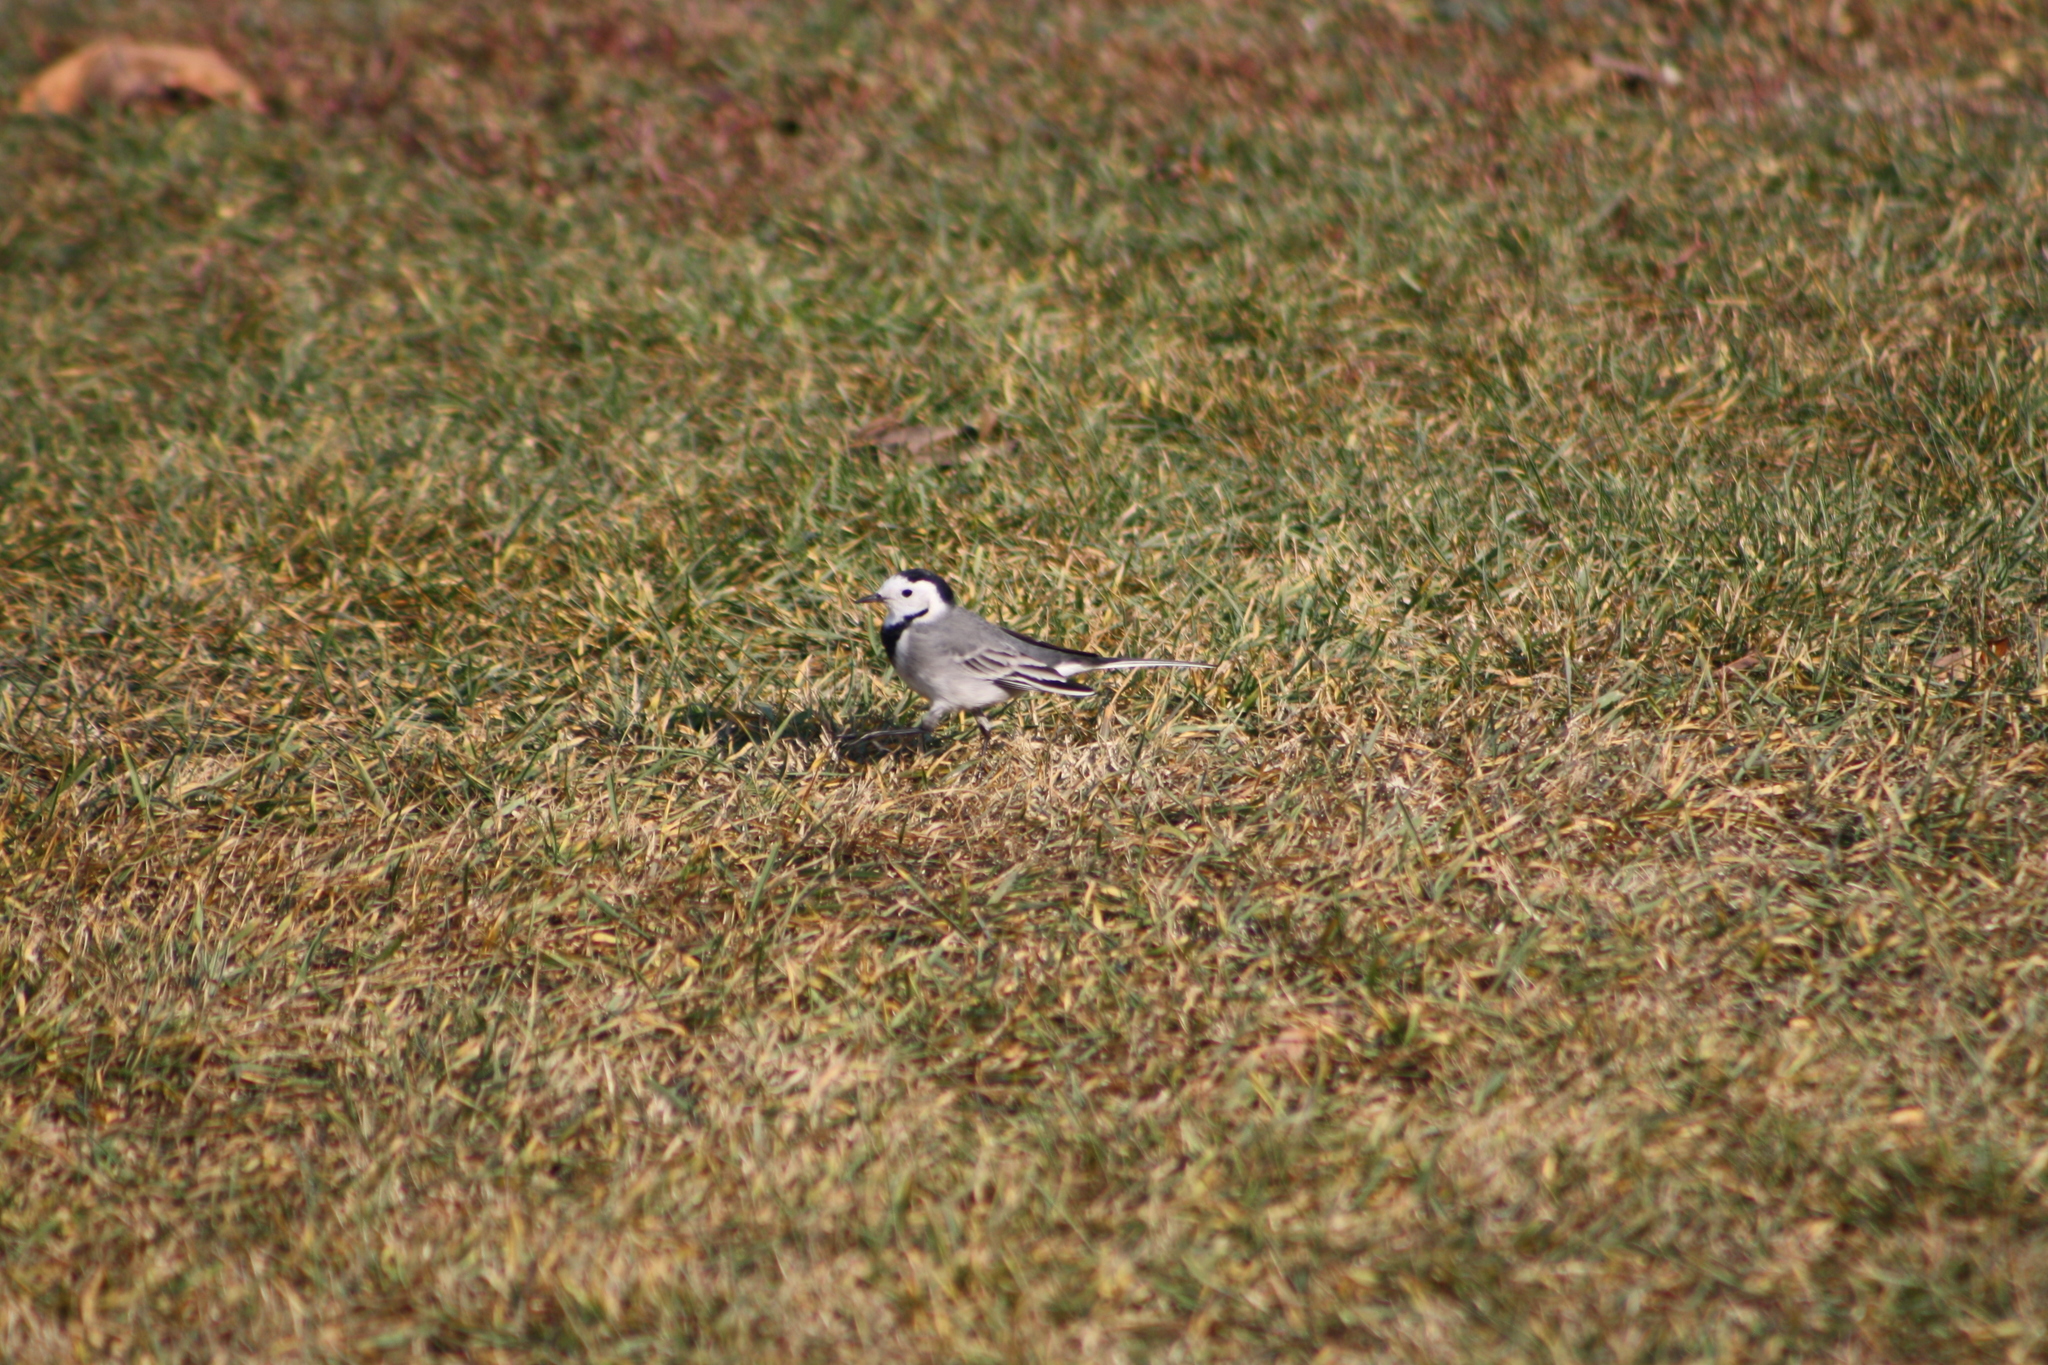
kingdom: Animalia
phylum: Chordata
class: Aves
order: Passeriformes
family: Motacillidae
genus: Motacilla
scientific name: Motacilla alba
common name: White wagtail
